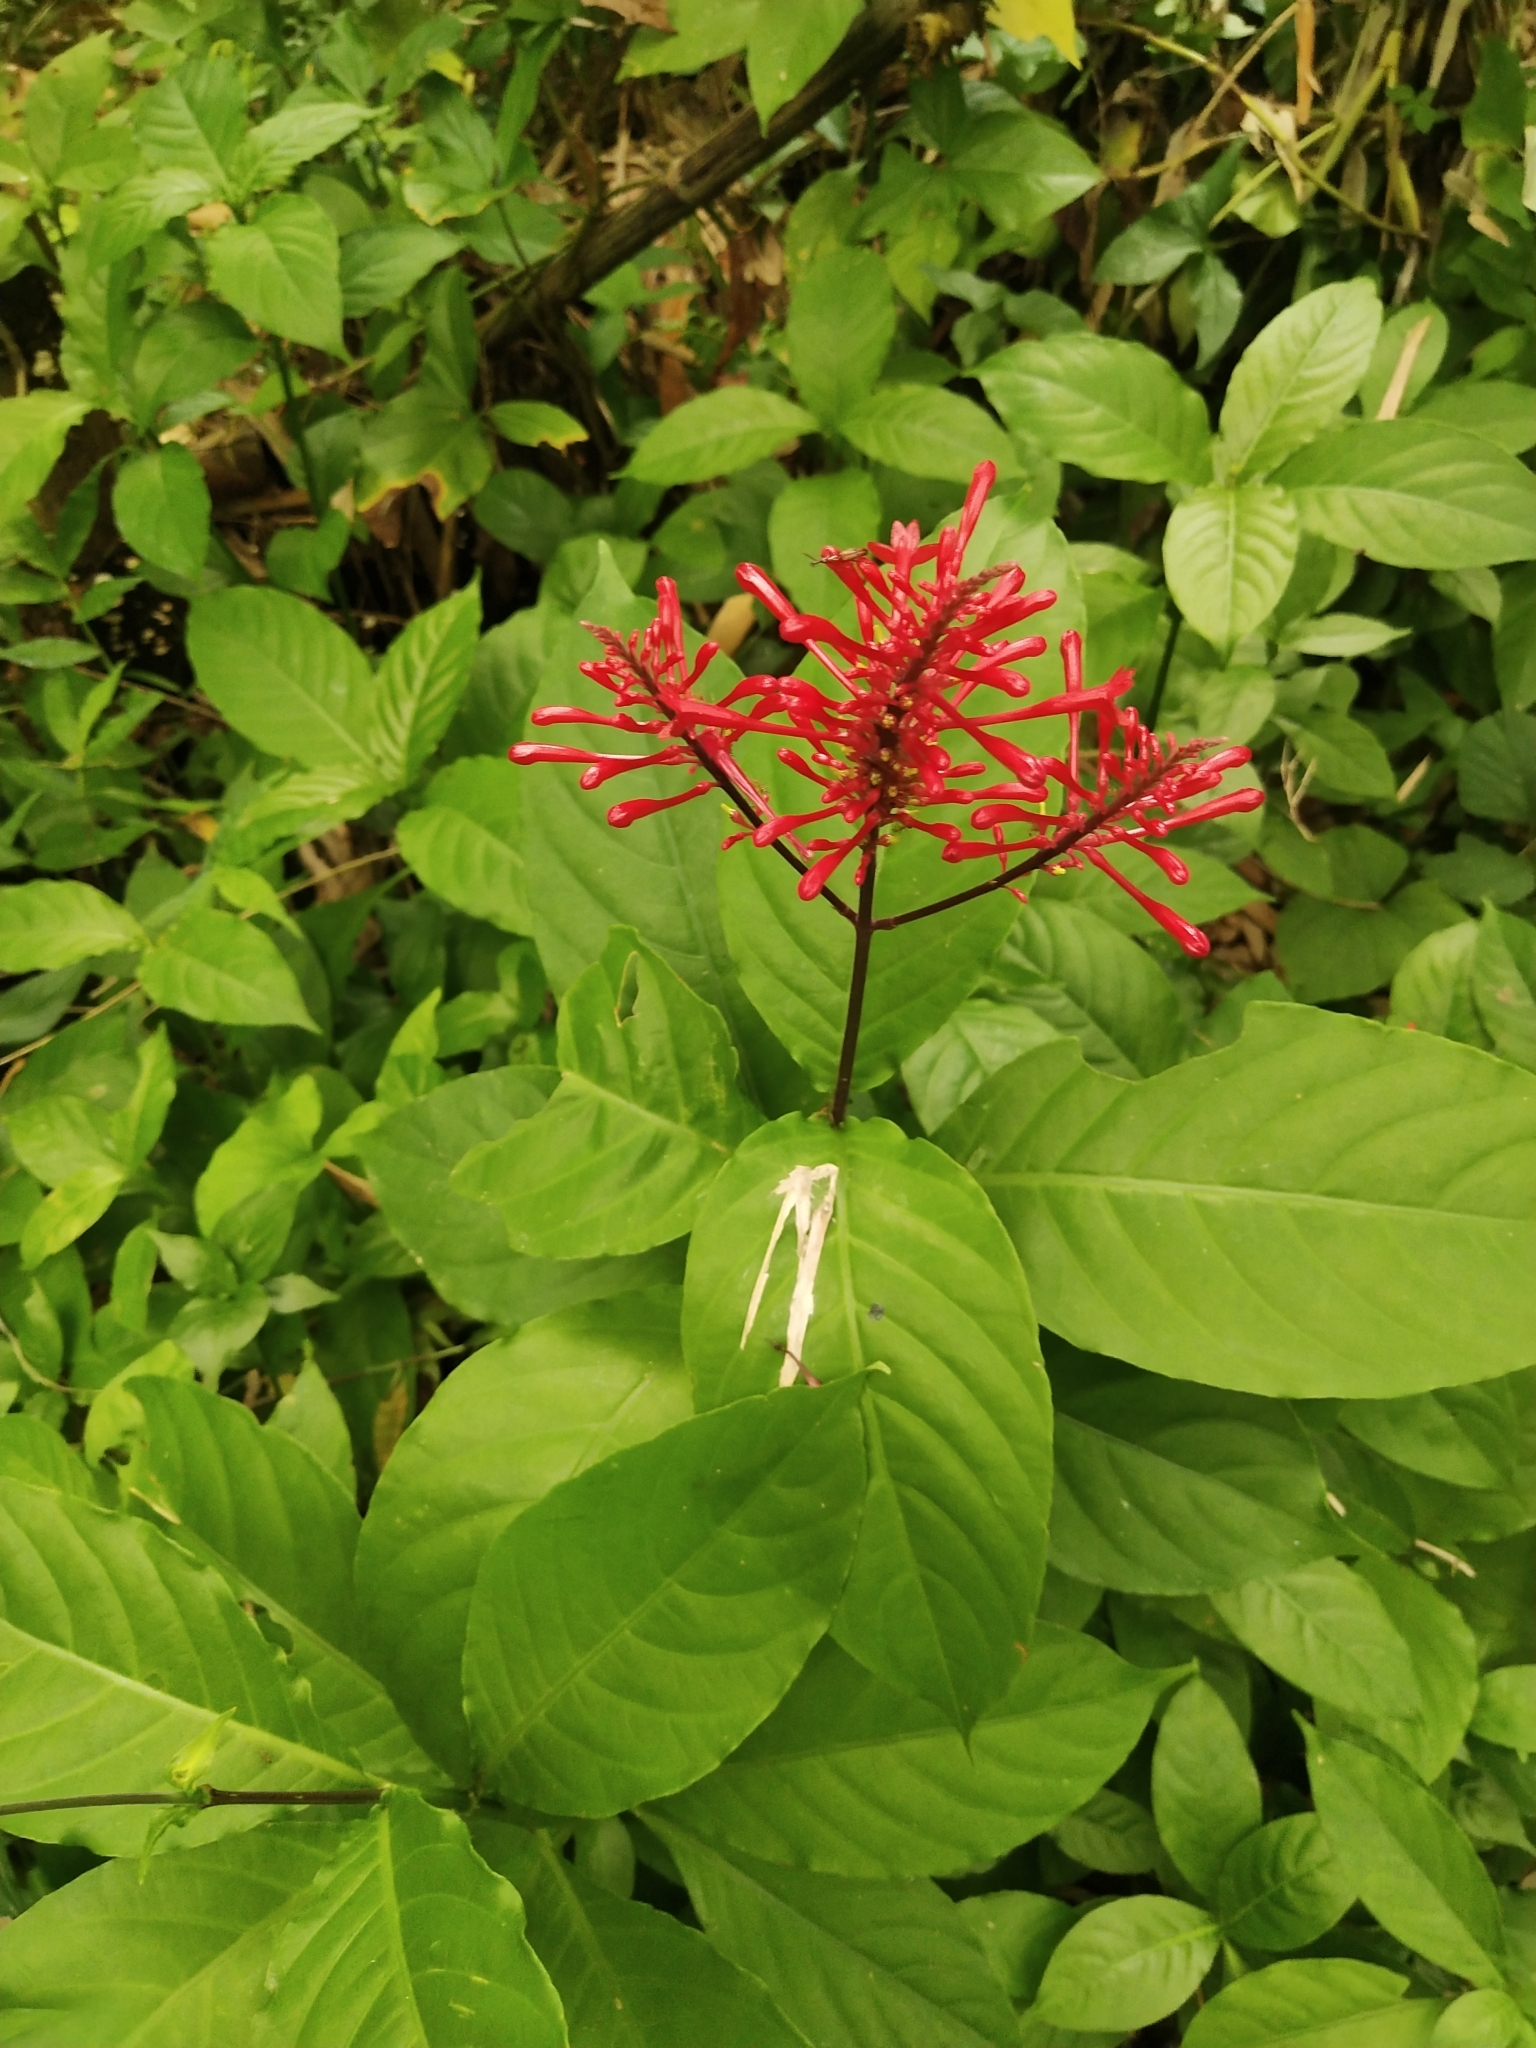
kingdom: Plantae
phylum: Tracheophyta
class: Magnoliopsida
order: Lamiales
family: Acanthaceae
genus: Odontonema
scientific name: Odontonema tubaeforme
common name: Firespike
